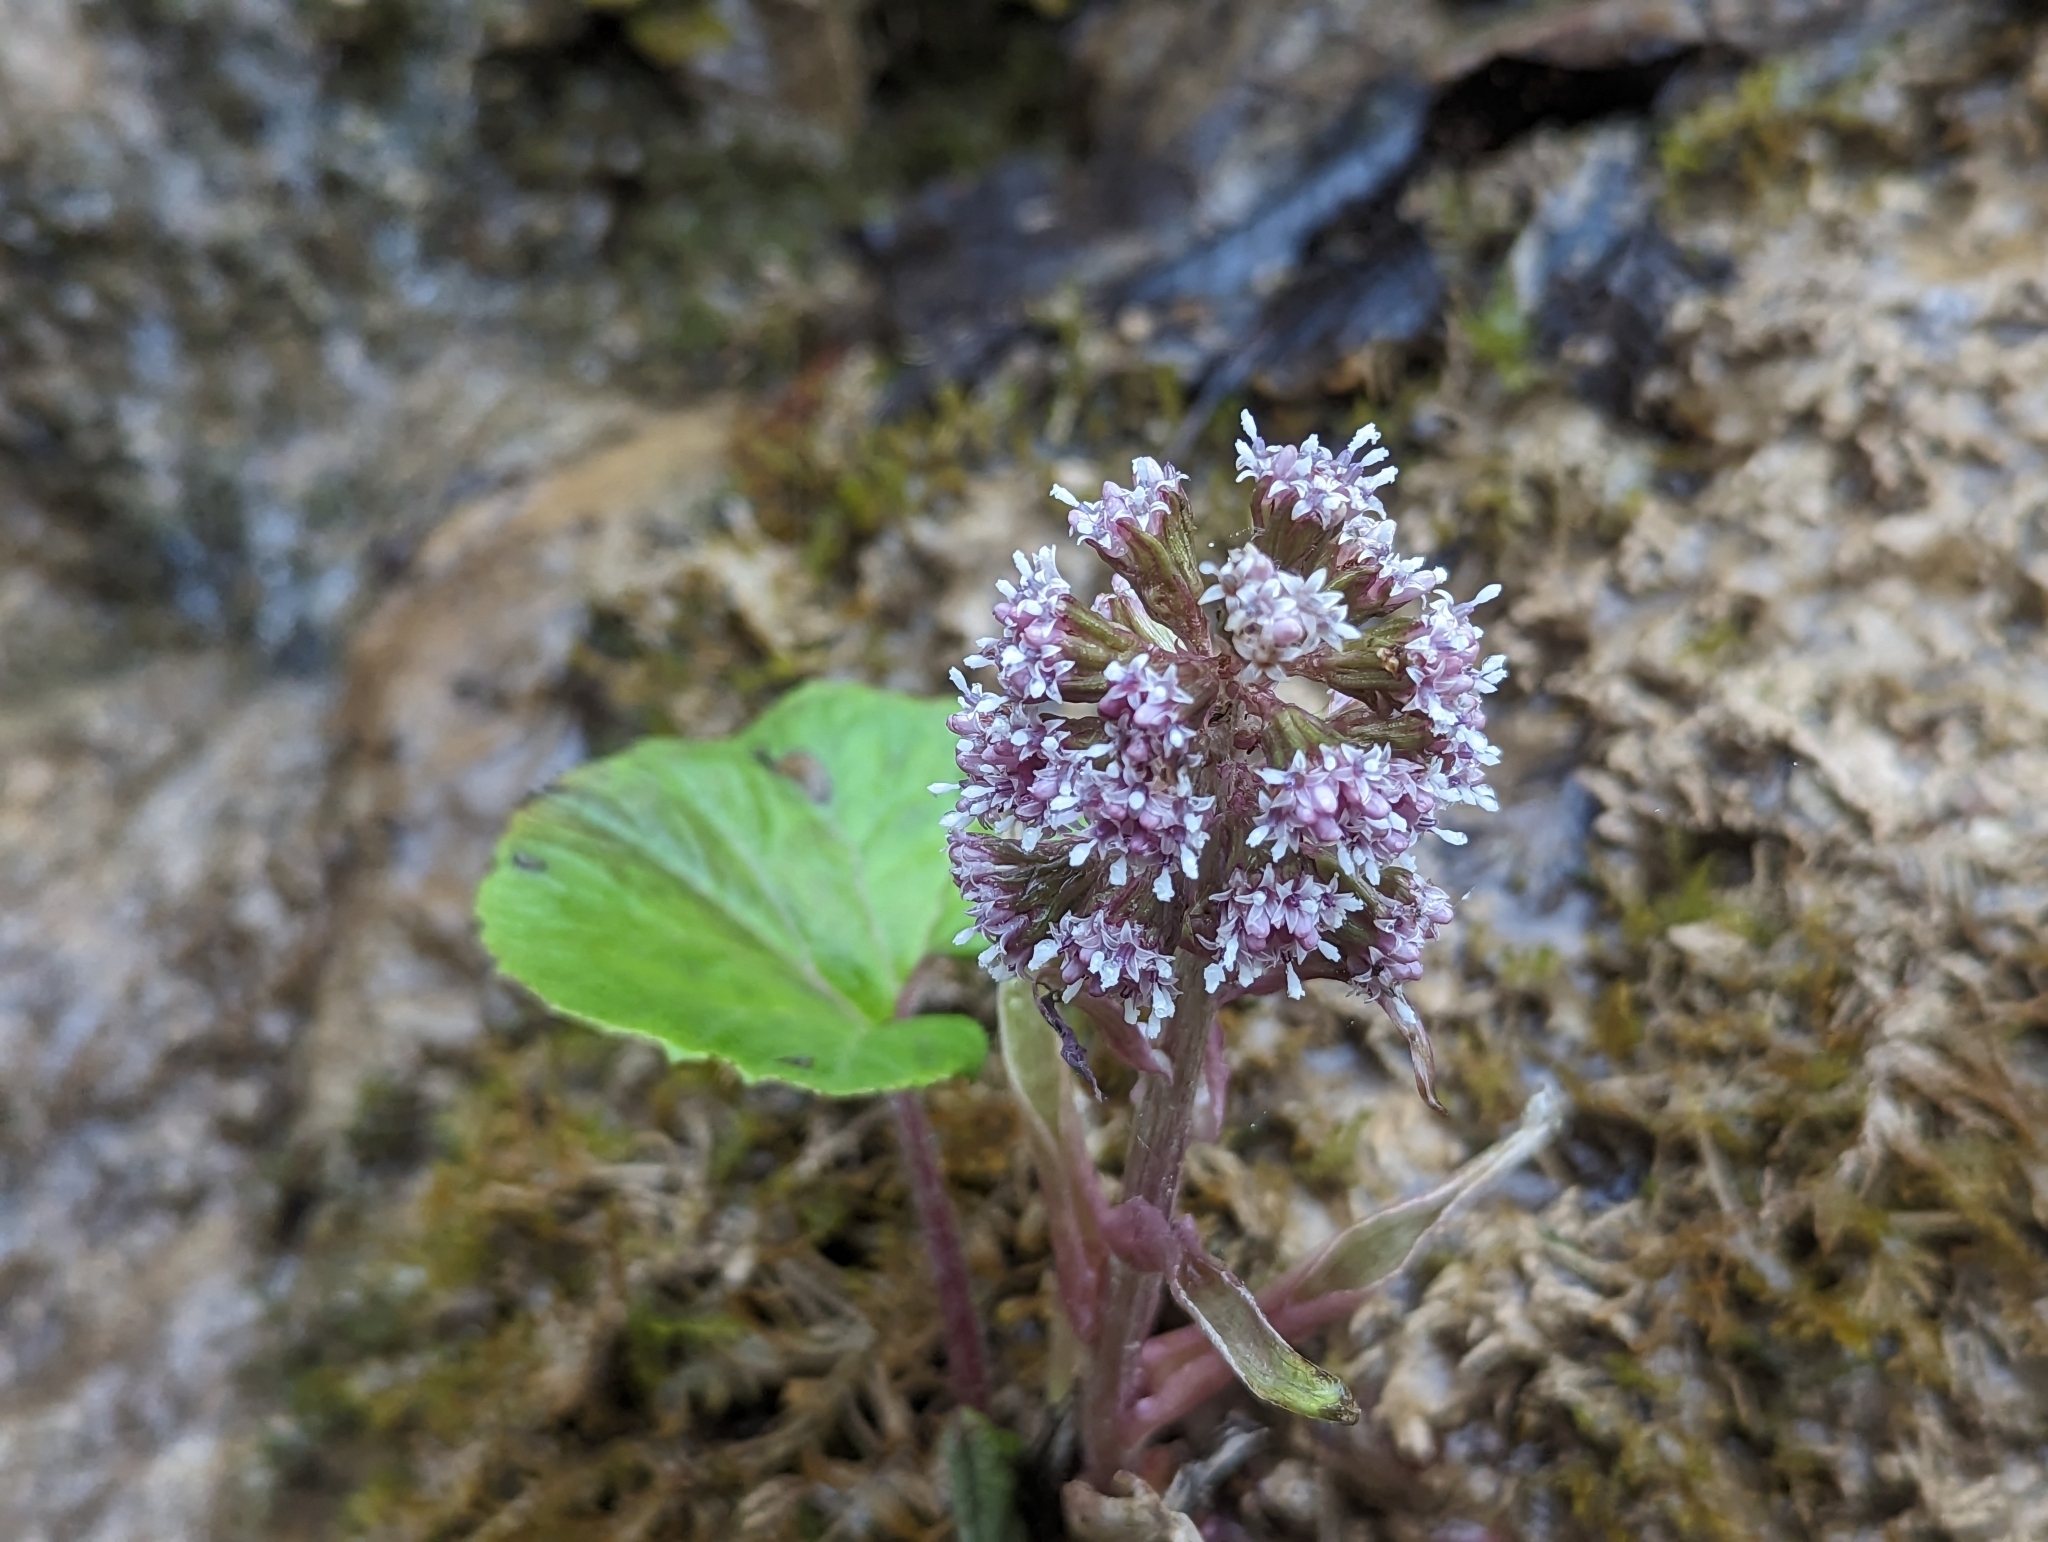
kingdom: Plantae
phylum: Tracheophyta
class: Magnoliopsida
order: Asterales
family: Asteraceae
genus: Petasites
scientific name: Petasites hybridus
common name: Butterbur
